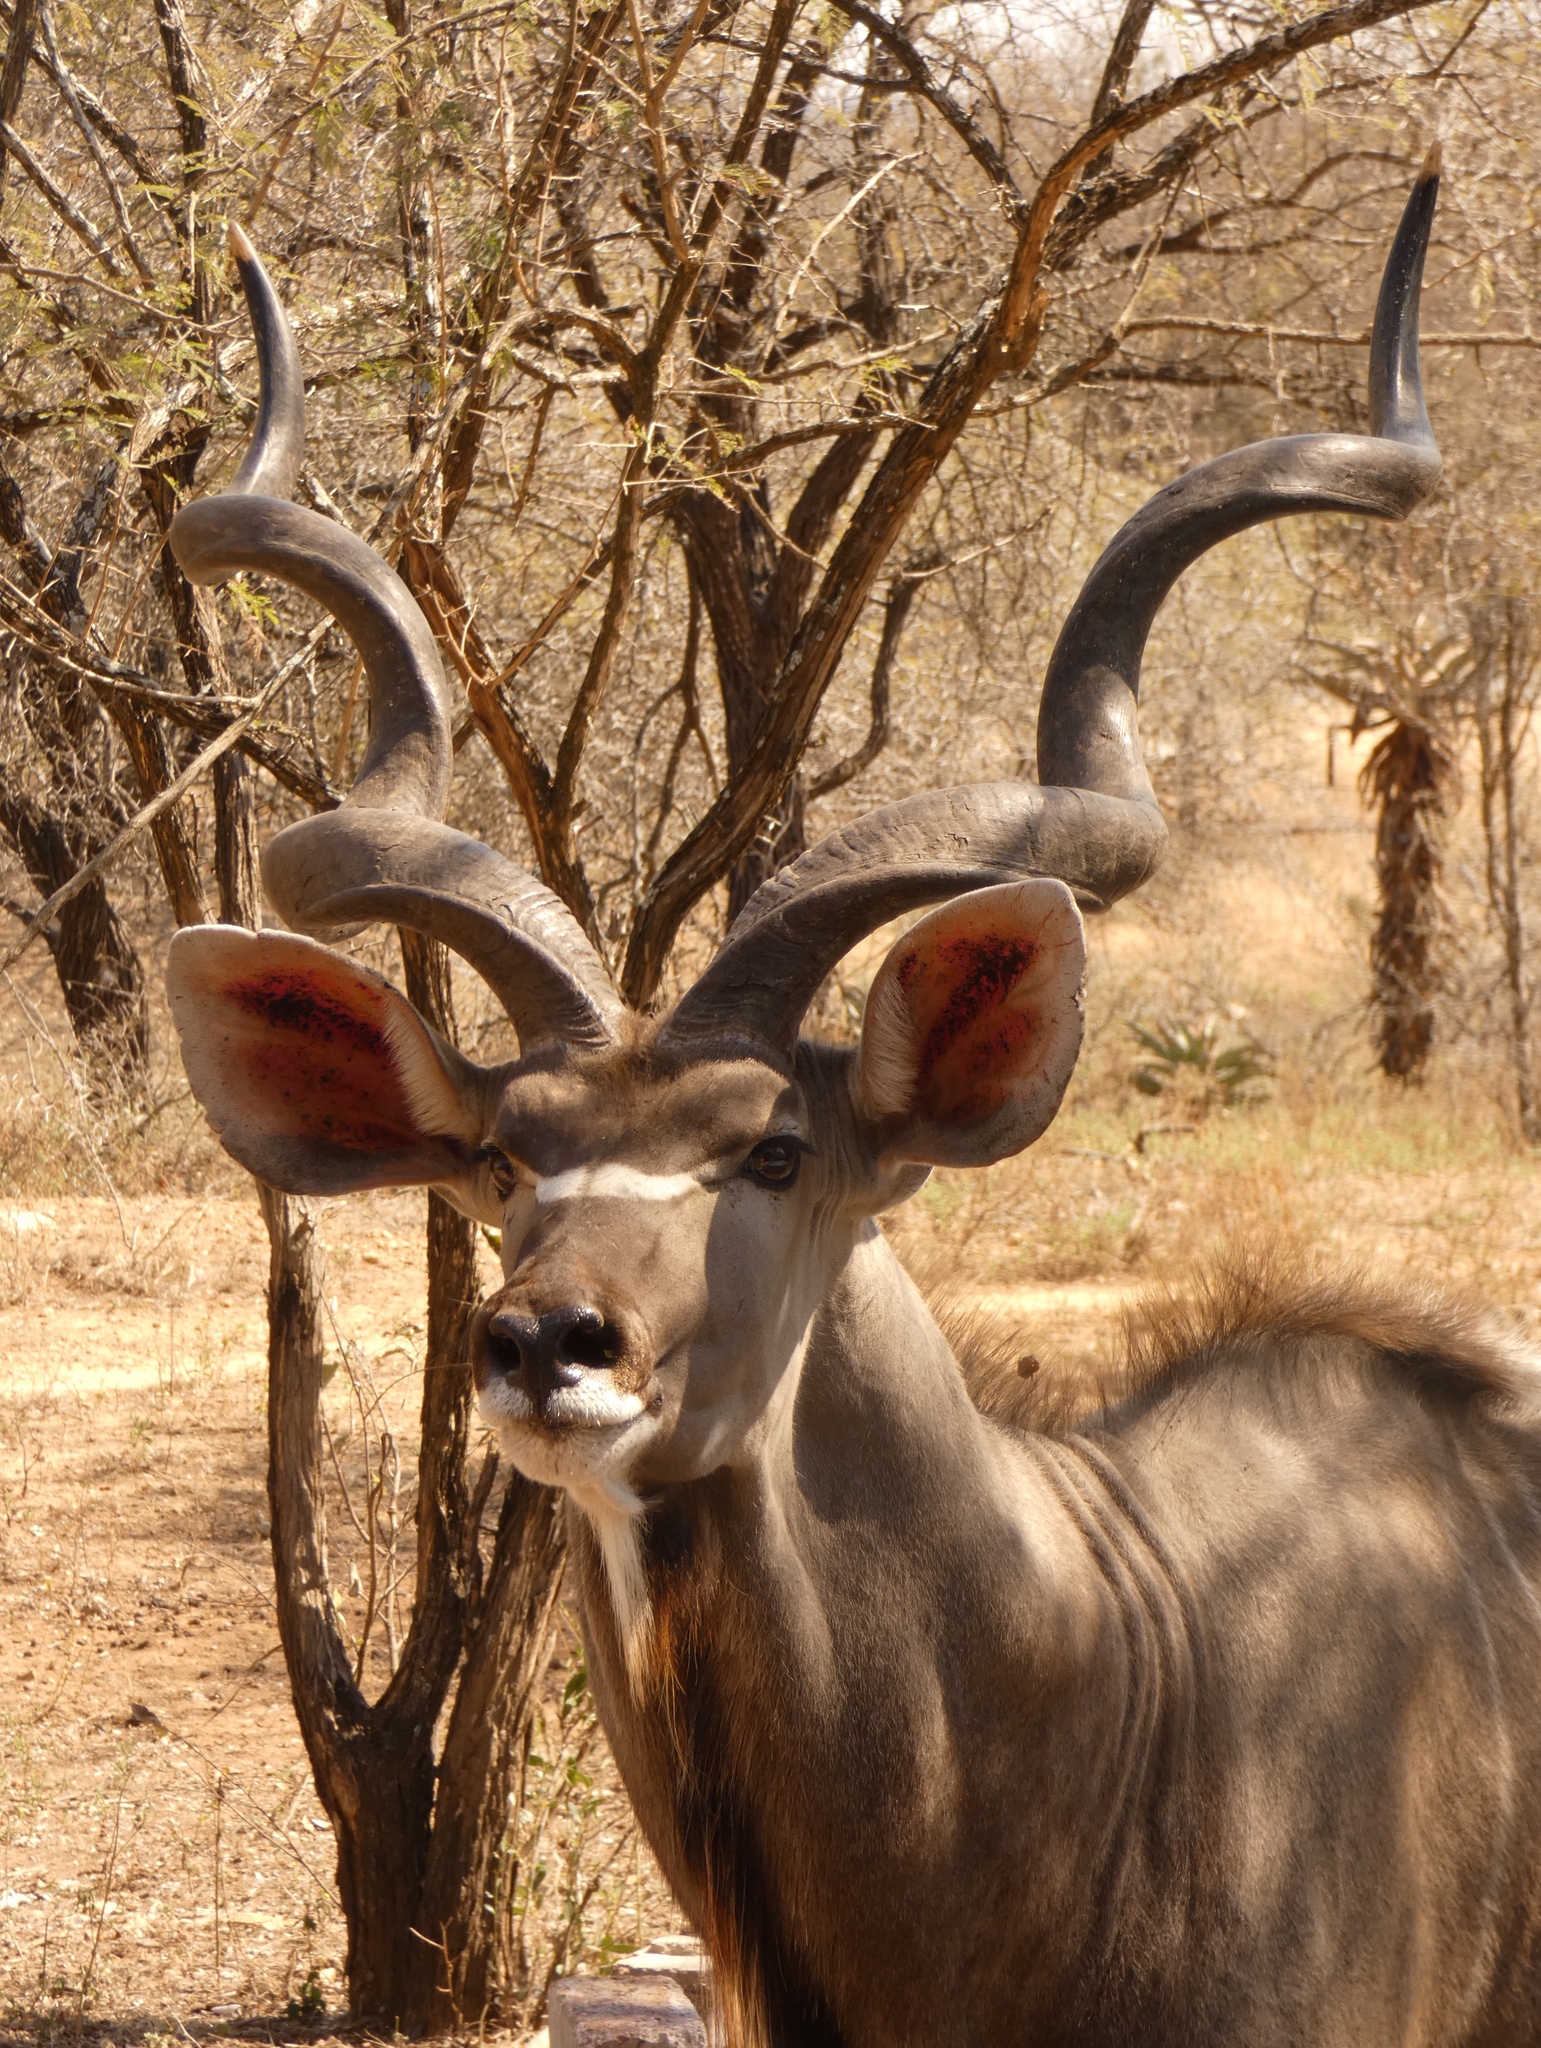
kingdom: Animalia
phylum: Chordata
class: Mammalia
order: Artiodactyla
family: Bovidae
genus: Tragelaphus
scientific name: Tragelaphus strepsiceros
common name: Greater kudu
